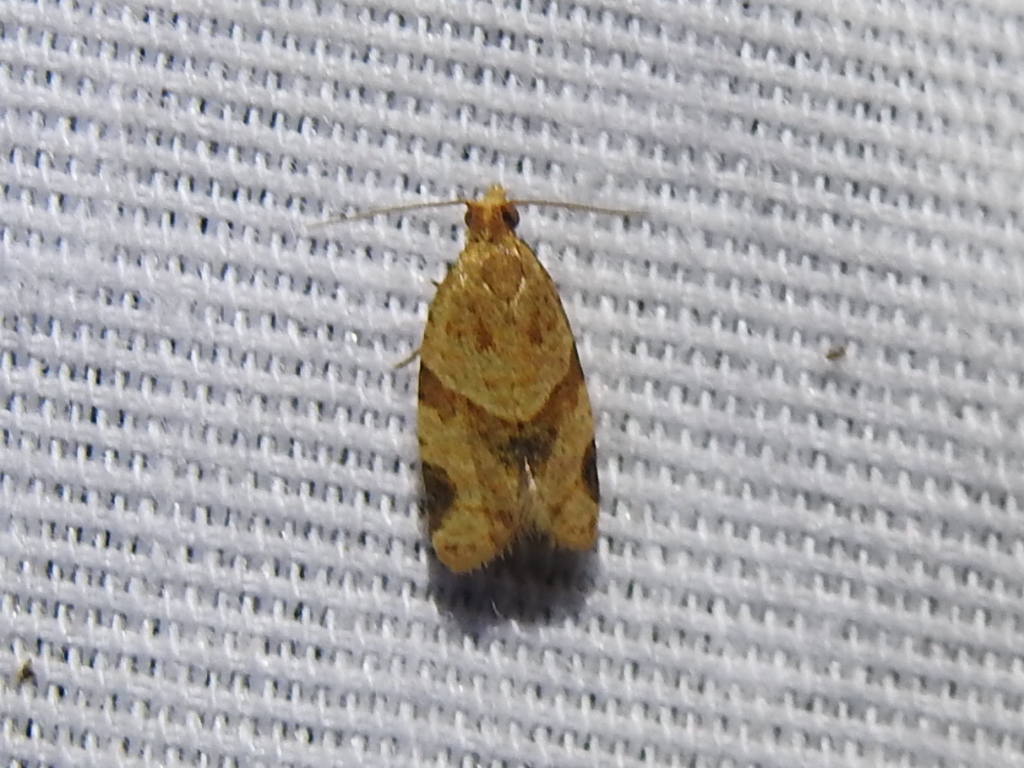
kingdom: Animalia
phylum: Arthropoda
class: Insecta
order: Lepidoptera
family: Tortricidae
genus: Clepsis
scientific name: Clepsis peritana
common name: Garden tortrix
